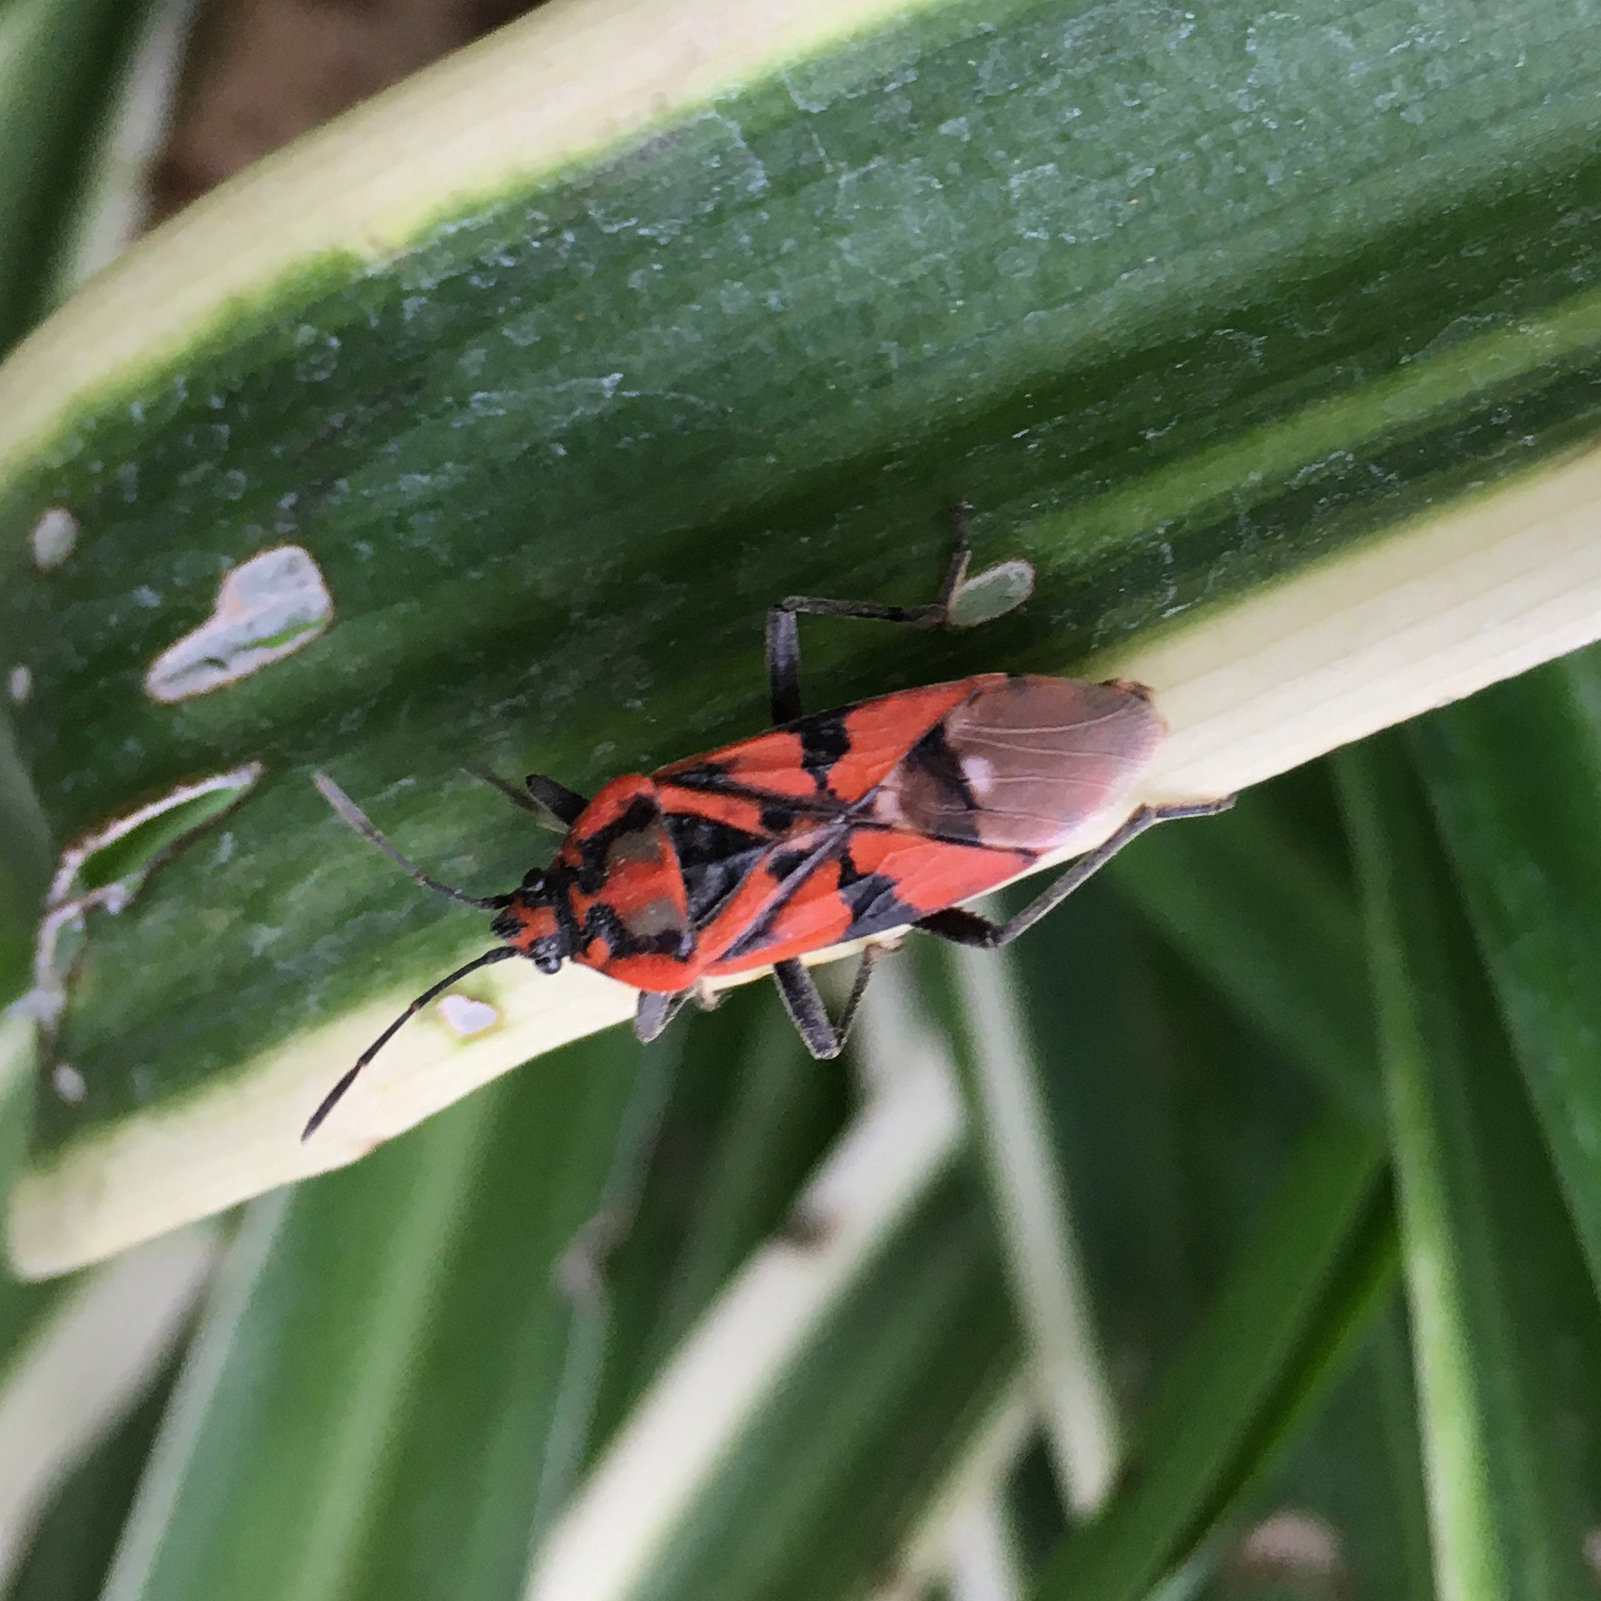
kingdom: Animalia
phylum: Arthropoda
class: Insecta
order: Hemiptera
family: Lygaeidae
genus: Spilostethus
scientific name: Spilostethus pandurus
